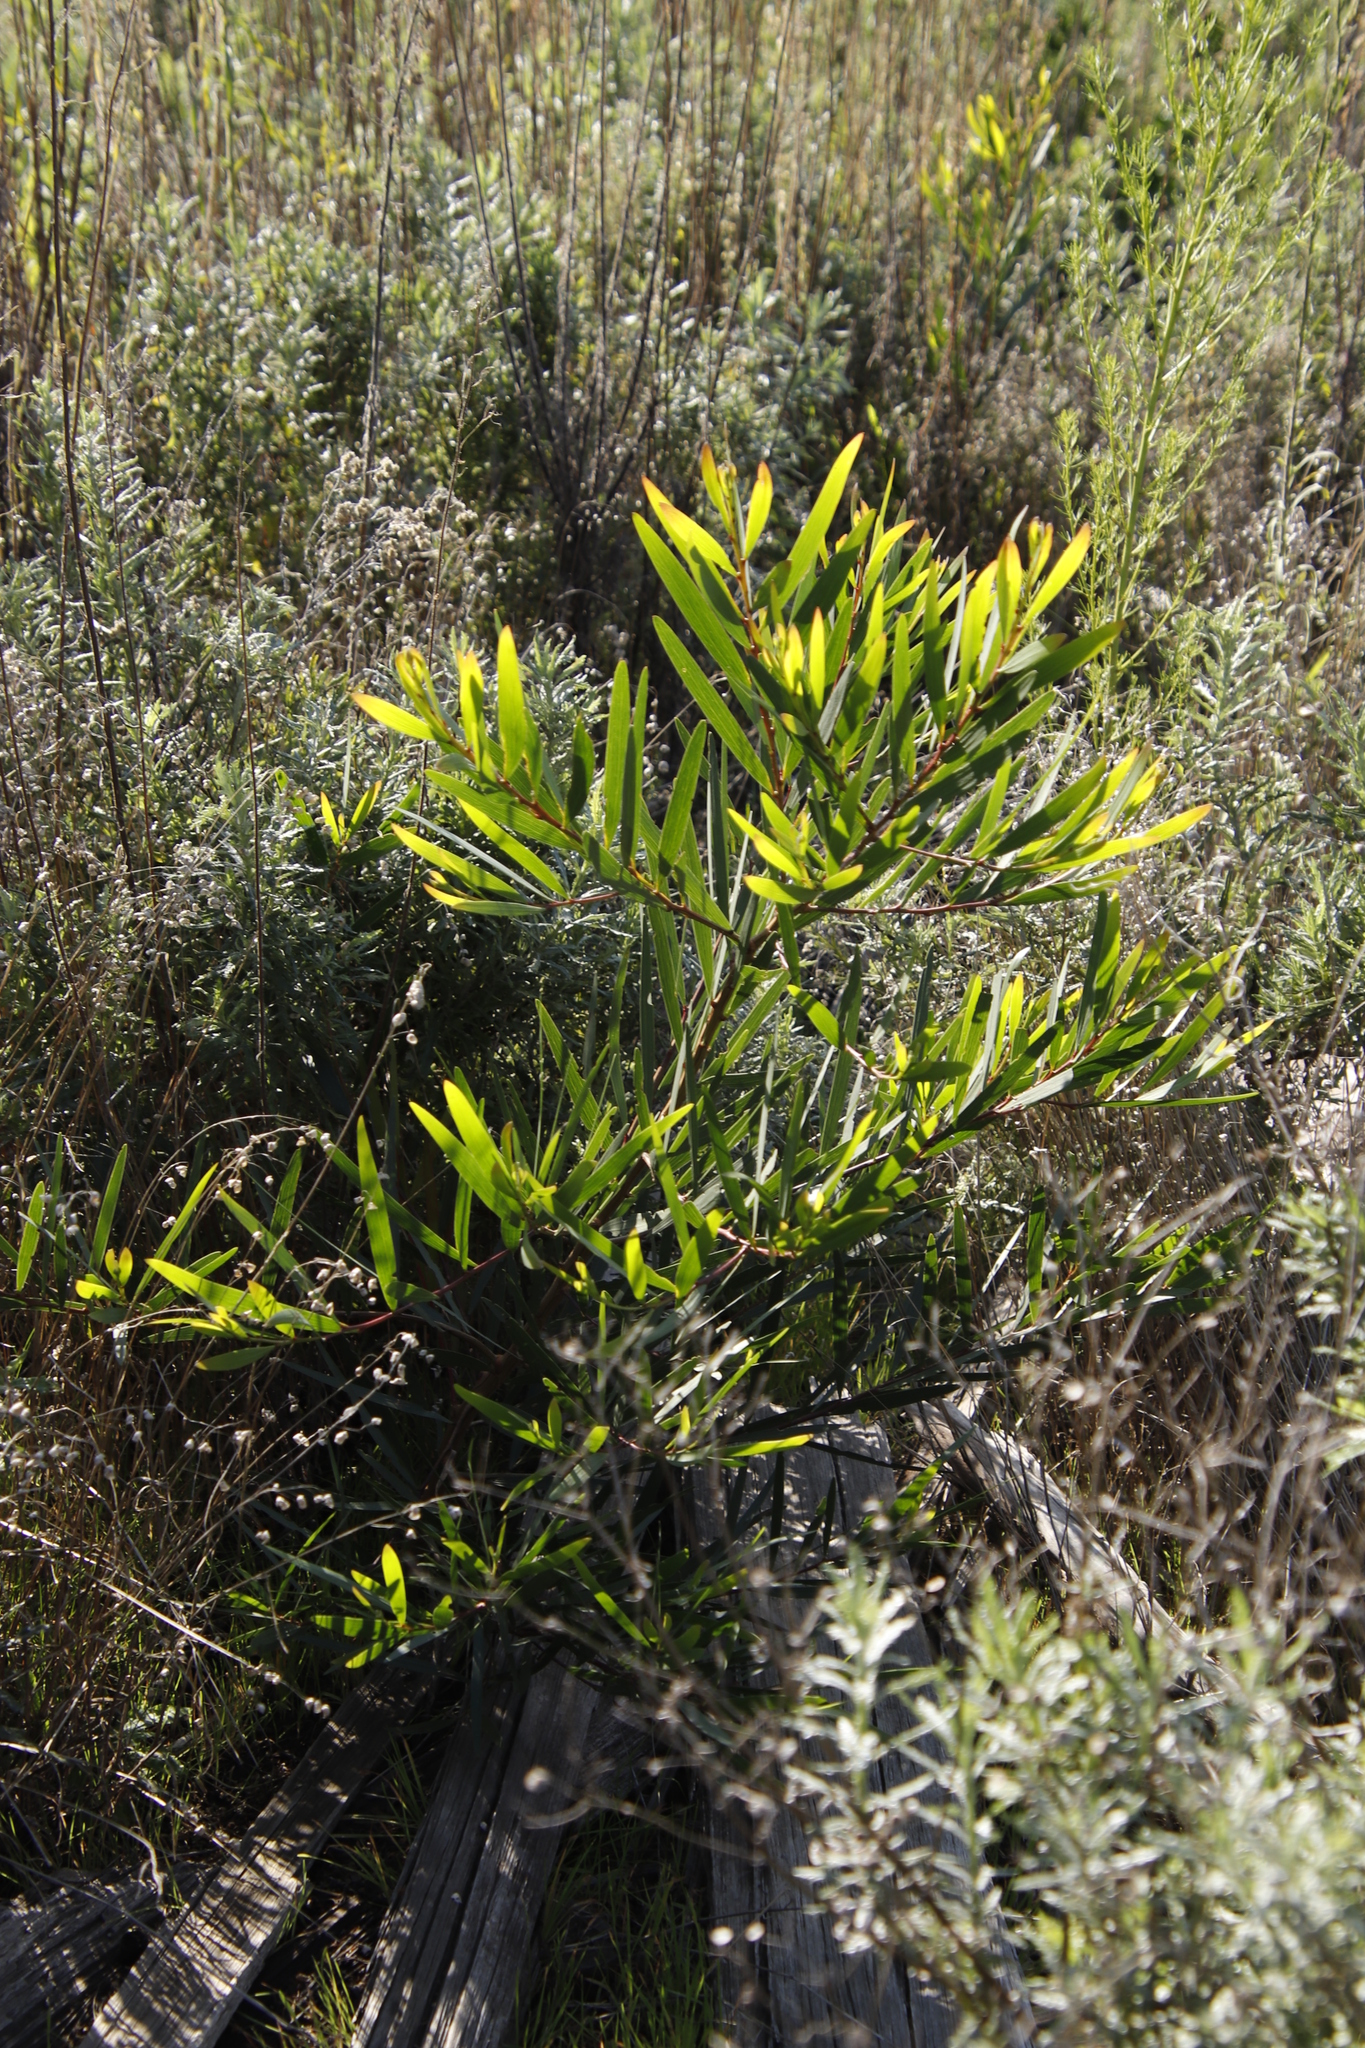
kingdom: Plantae
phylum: Tracheophyta
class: Magnoliopsida
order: Fabales
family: Fabaceae
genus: Acacia
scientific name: Acacia longifolia
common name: Sydney golden wattle
